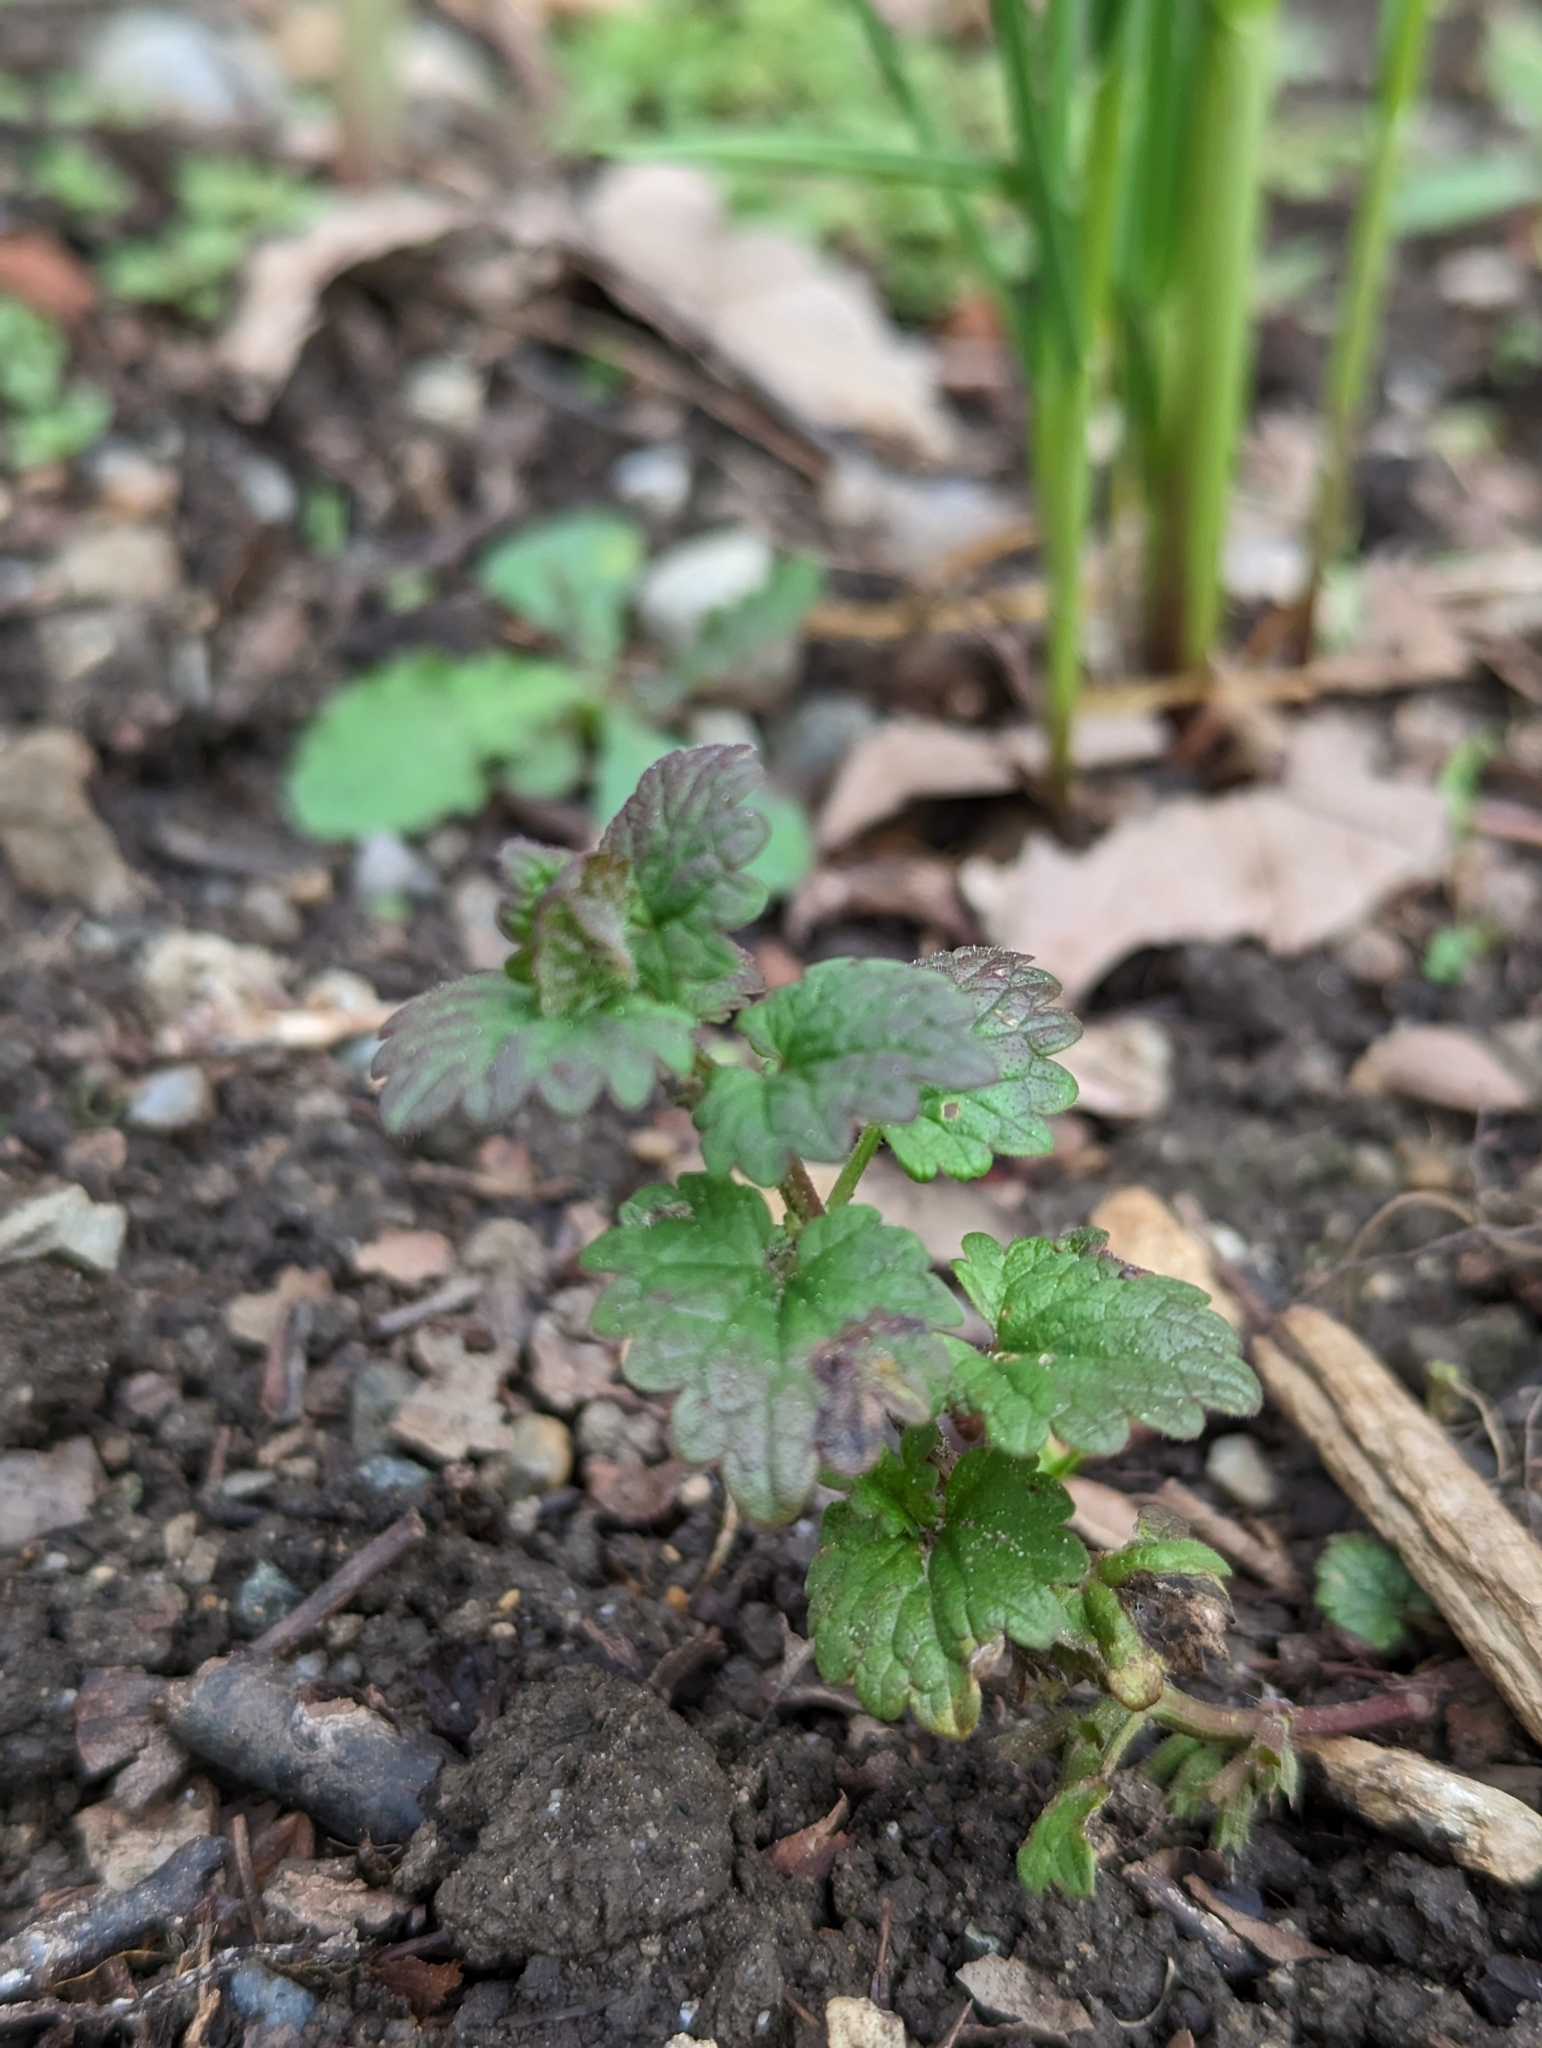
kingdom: Plantae
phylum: Tracheophyta
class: Magnoliopsida
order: Lamiales
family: Lamiaceae
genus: Glechoma
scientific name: Glechoma hederacea
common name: Ground ivy
